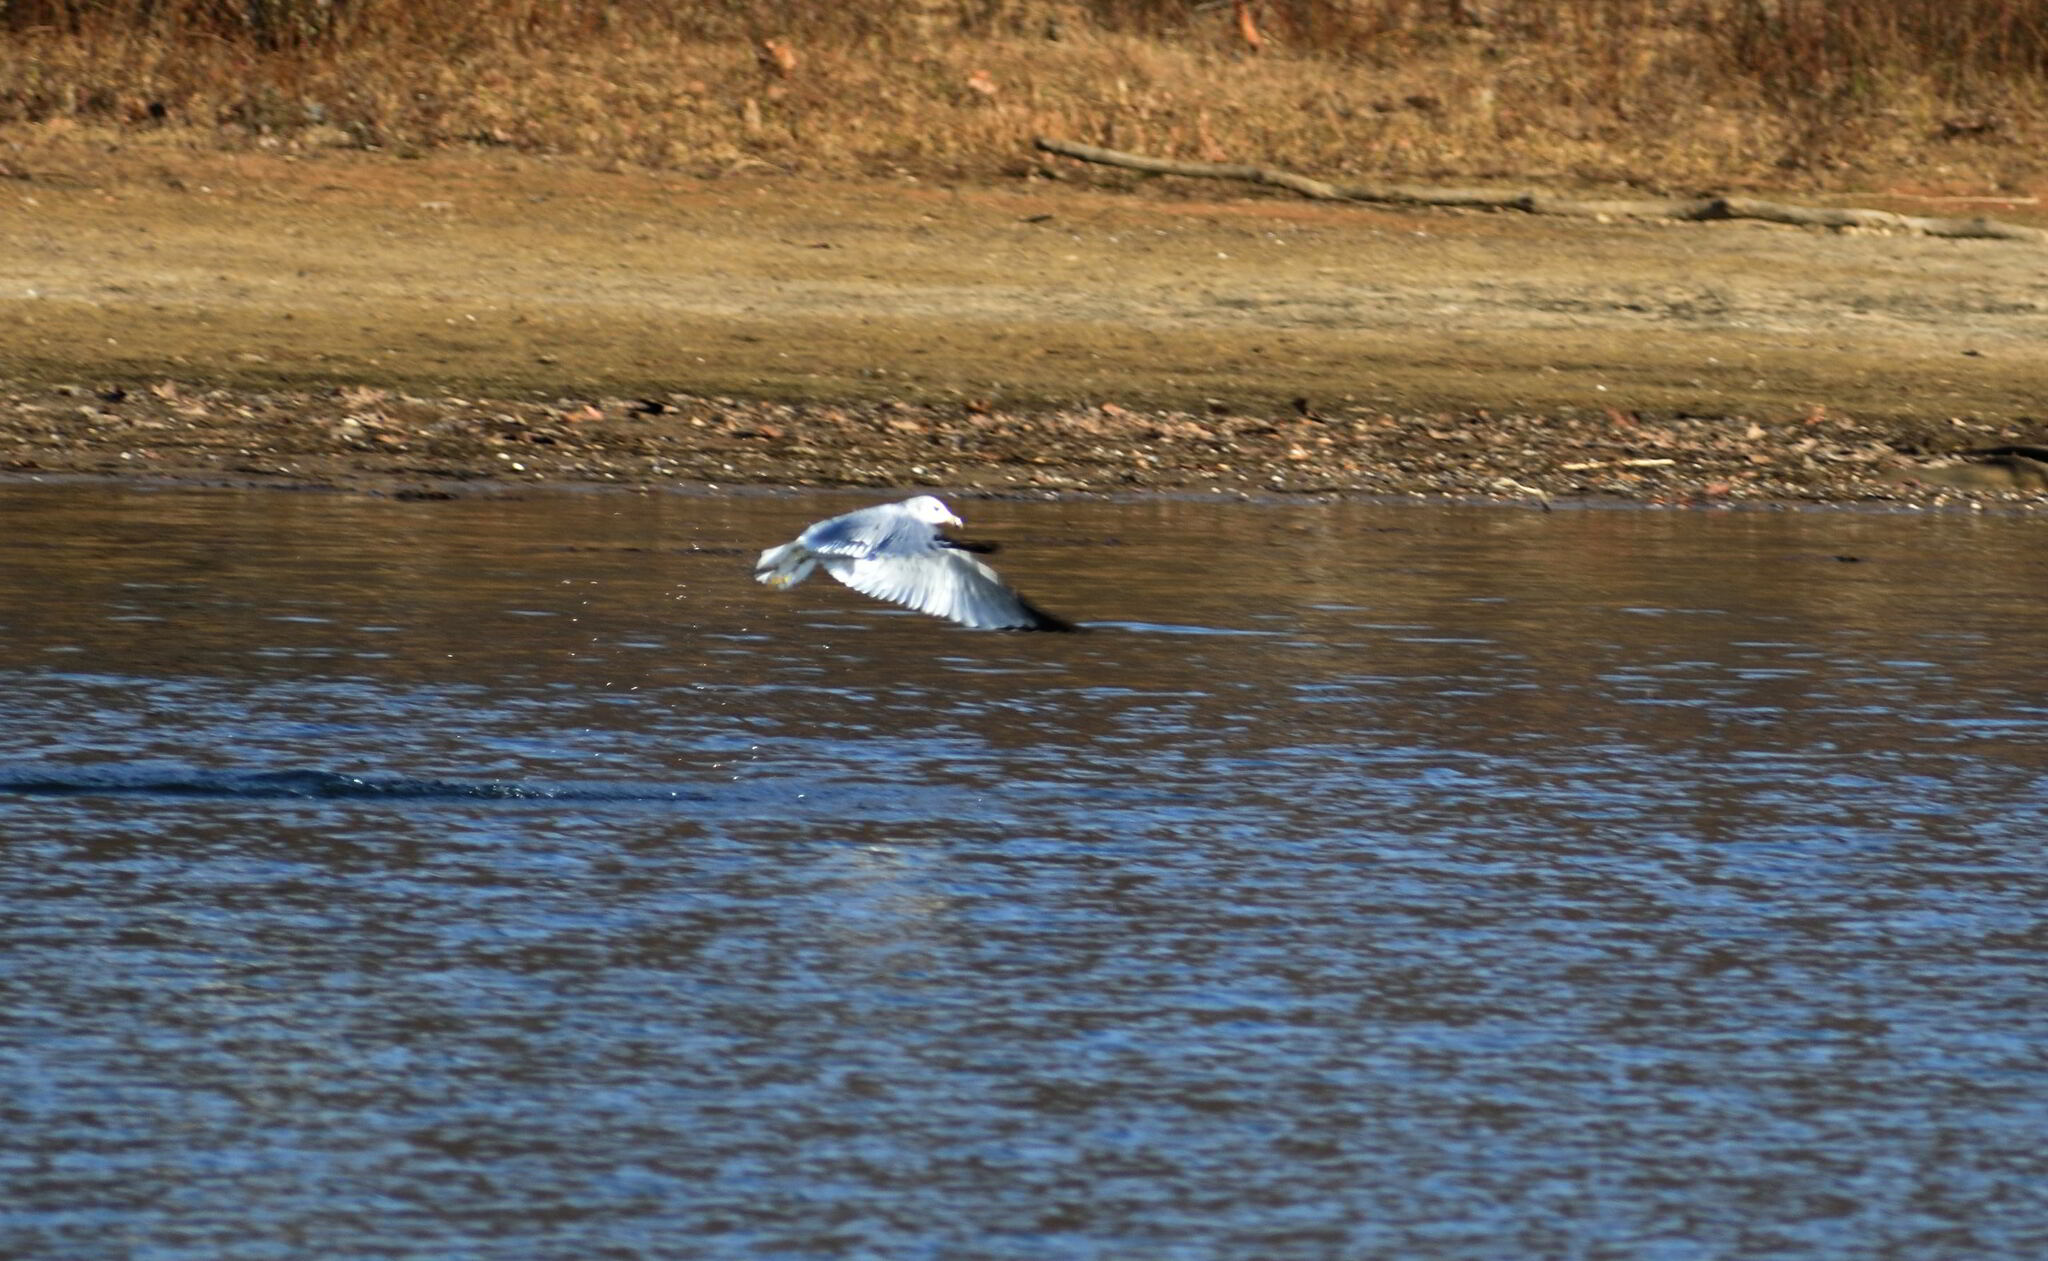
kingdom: Animalia
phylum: Chordata
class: Aves
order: Charadriiformes
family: Laridae
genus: Larus
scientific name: Larus delawarensis
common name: Ring-billed gull
